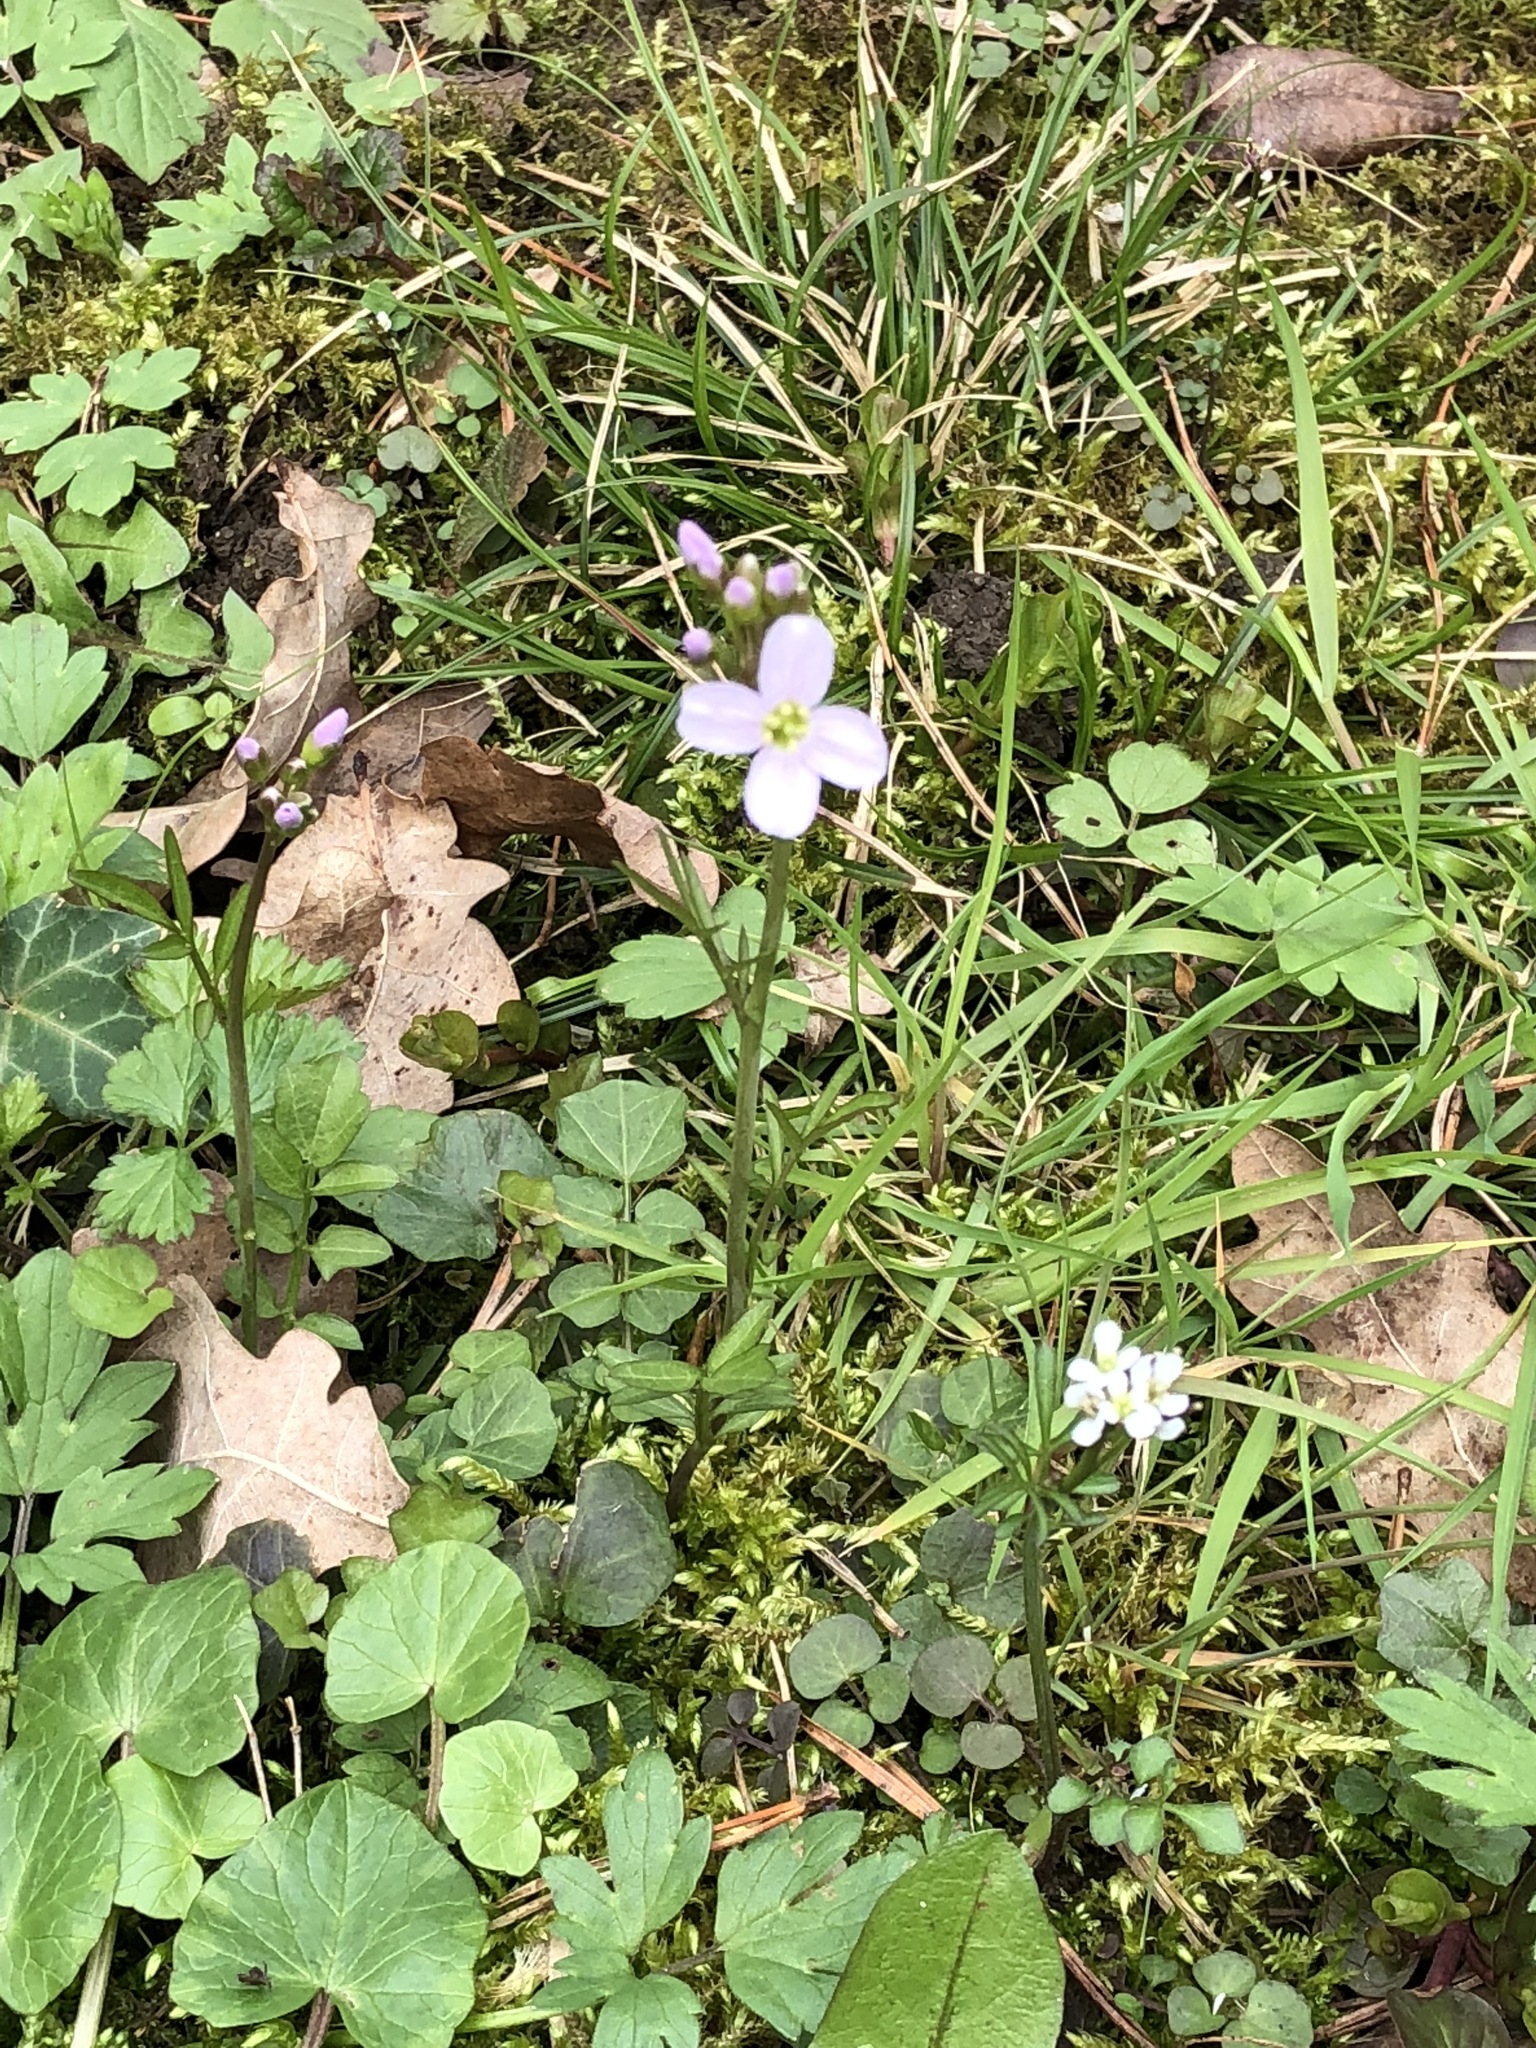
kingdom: Plantae
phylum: Tracheophyta
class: Magnoliopsida
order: Brassicales
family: Brassicaceae
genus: Cardamine
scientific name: Cardamine pratensis
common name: Cuckoo flower
